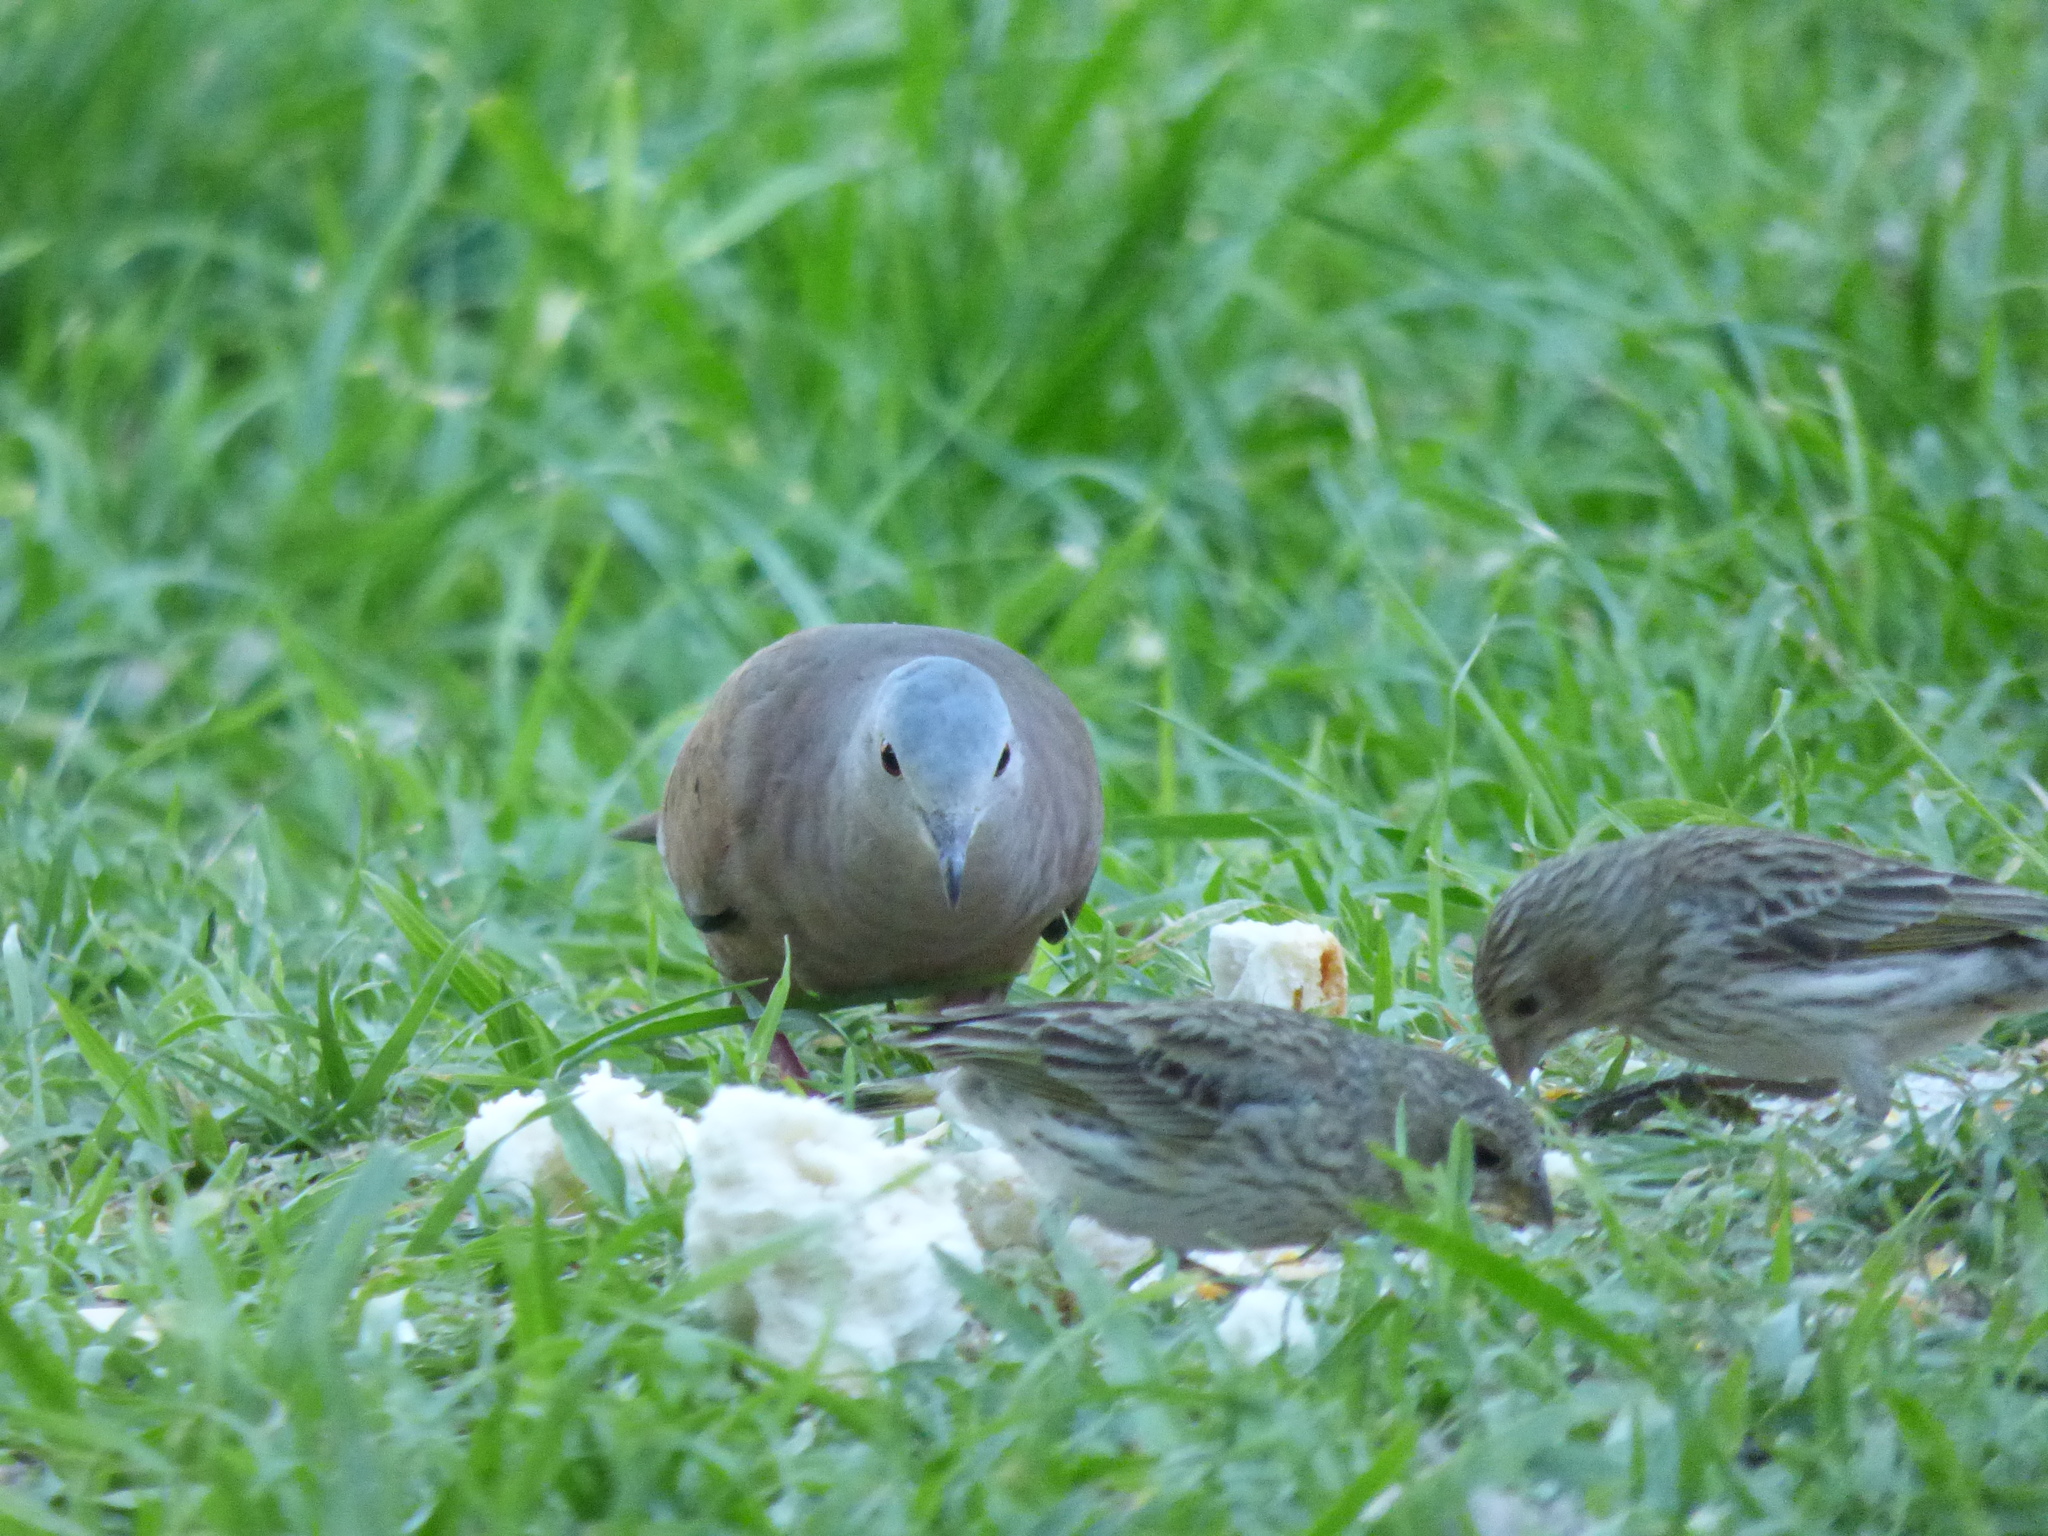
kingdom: Animalia
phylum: Chordata
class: Aves
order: Passeriformes
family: Thraupidae
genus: Sicalis
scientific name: Sicalis flaveola
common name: Saffron finch
